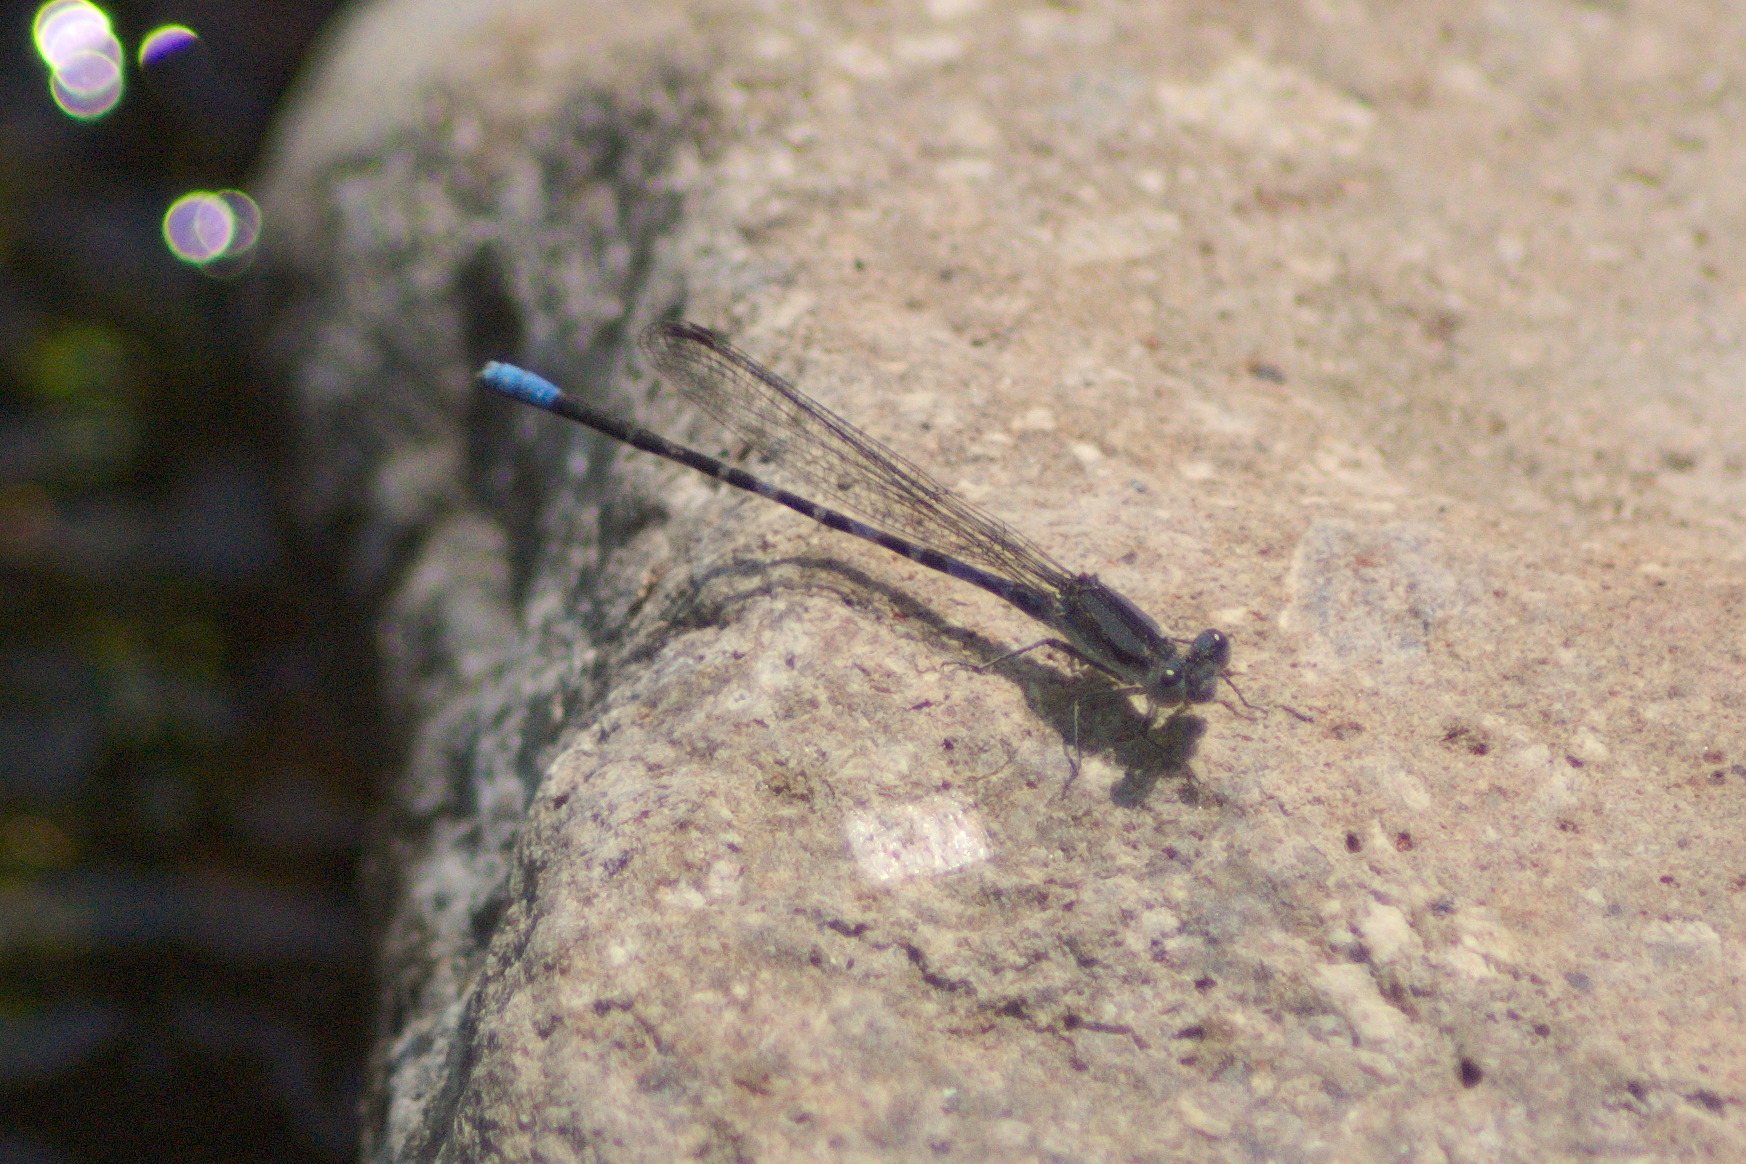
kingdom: Animalia
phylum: Arthropoda
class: Insecta
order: Odonata
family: Coenagrionidae
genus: Argia
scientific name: Argia immunda
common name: Kiowa dancer
